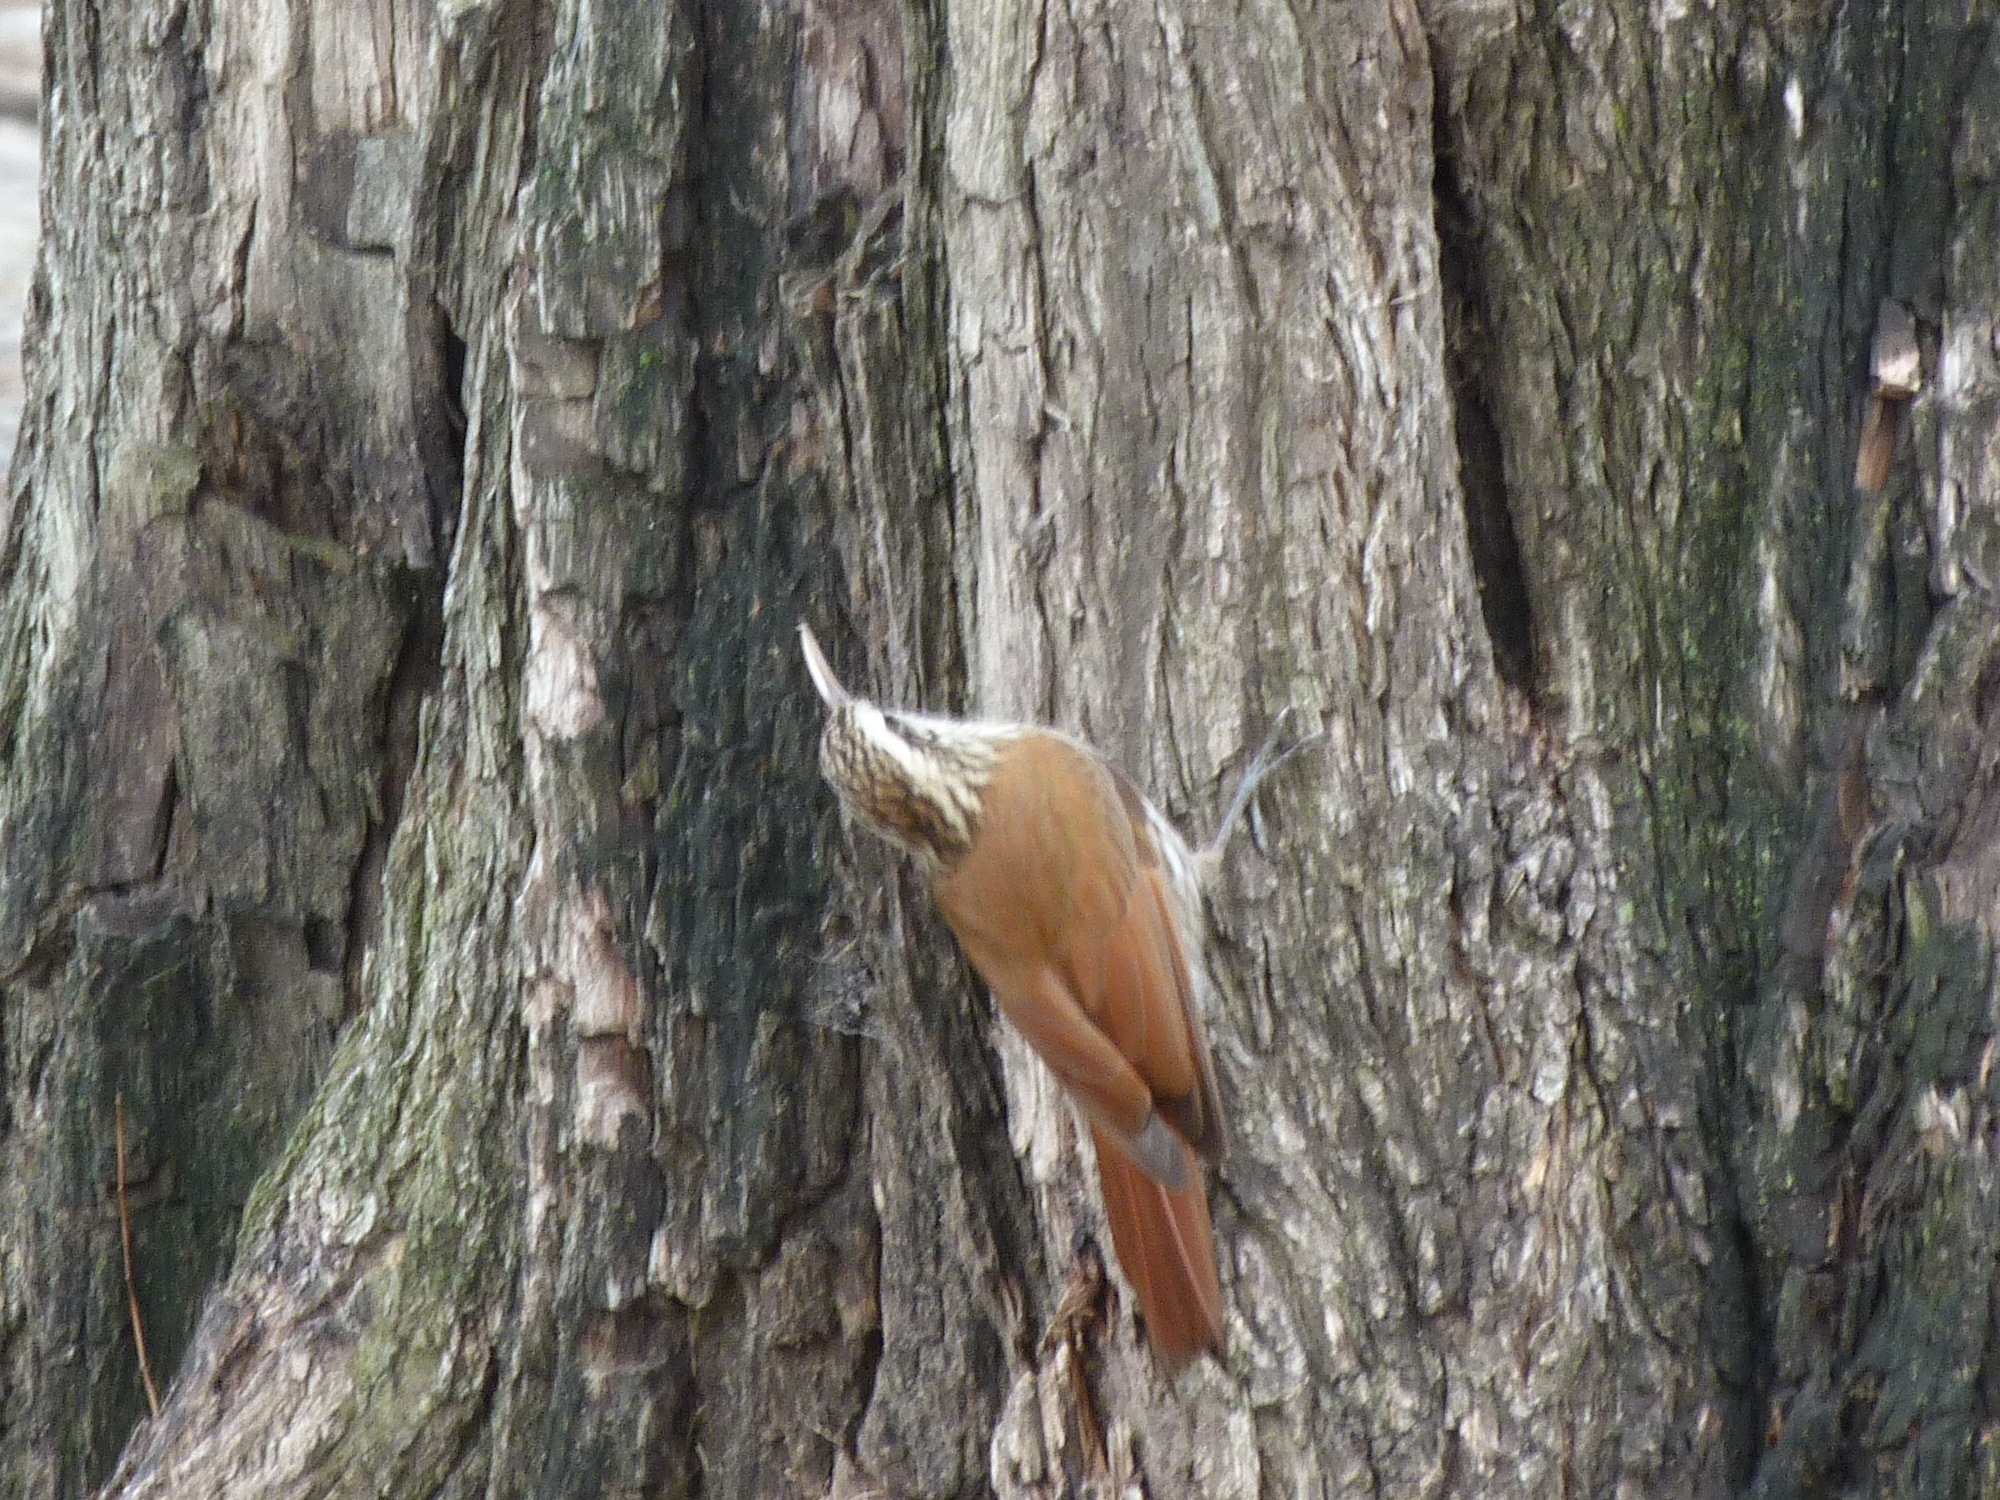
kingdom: Animalia
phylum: Chordata
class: Aves
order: Passeriformes
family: Furnariidae
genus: Lepidocolaptes
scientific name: Lepidocolaptes angustirostris
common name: Narrow-billed woodcreeper
